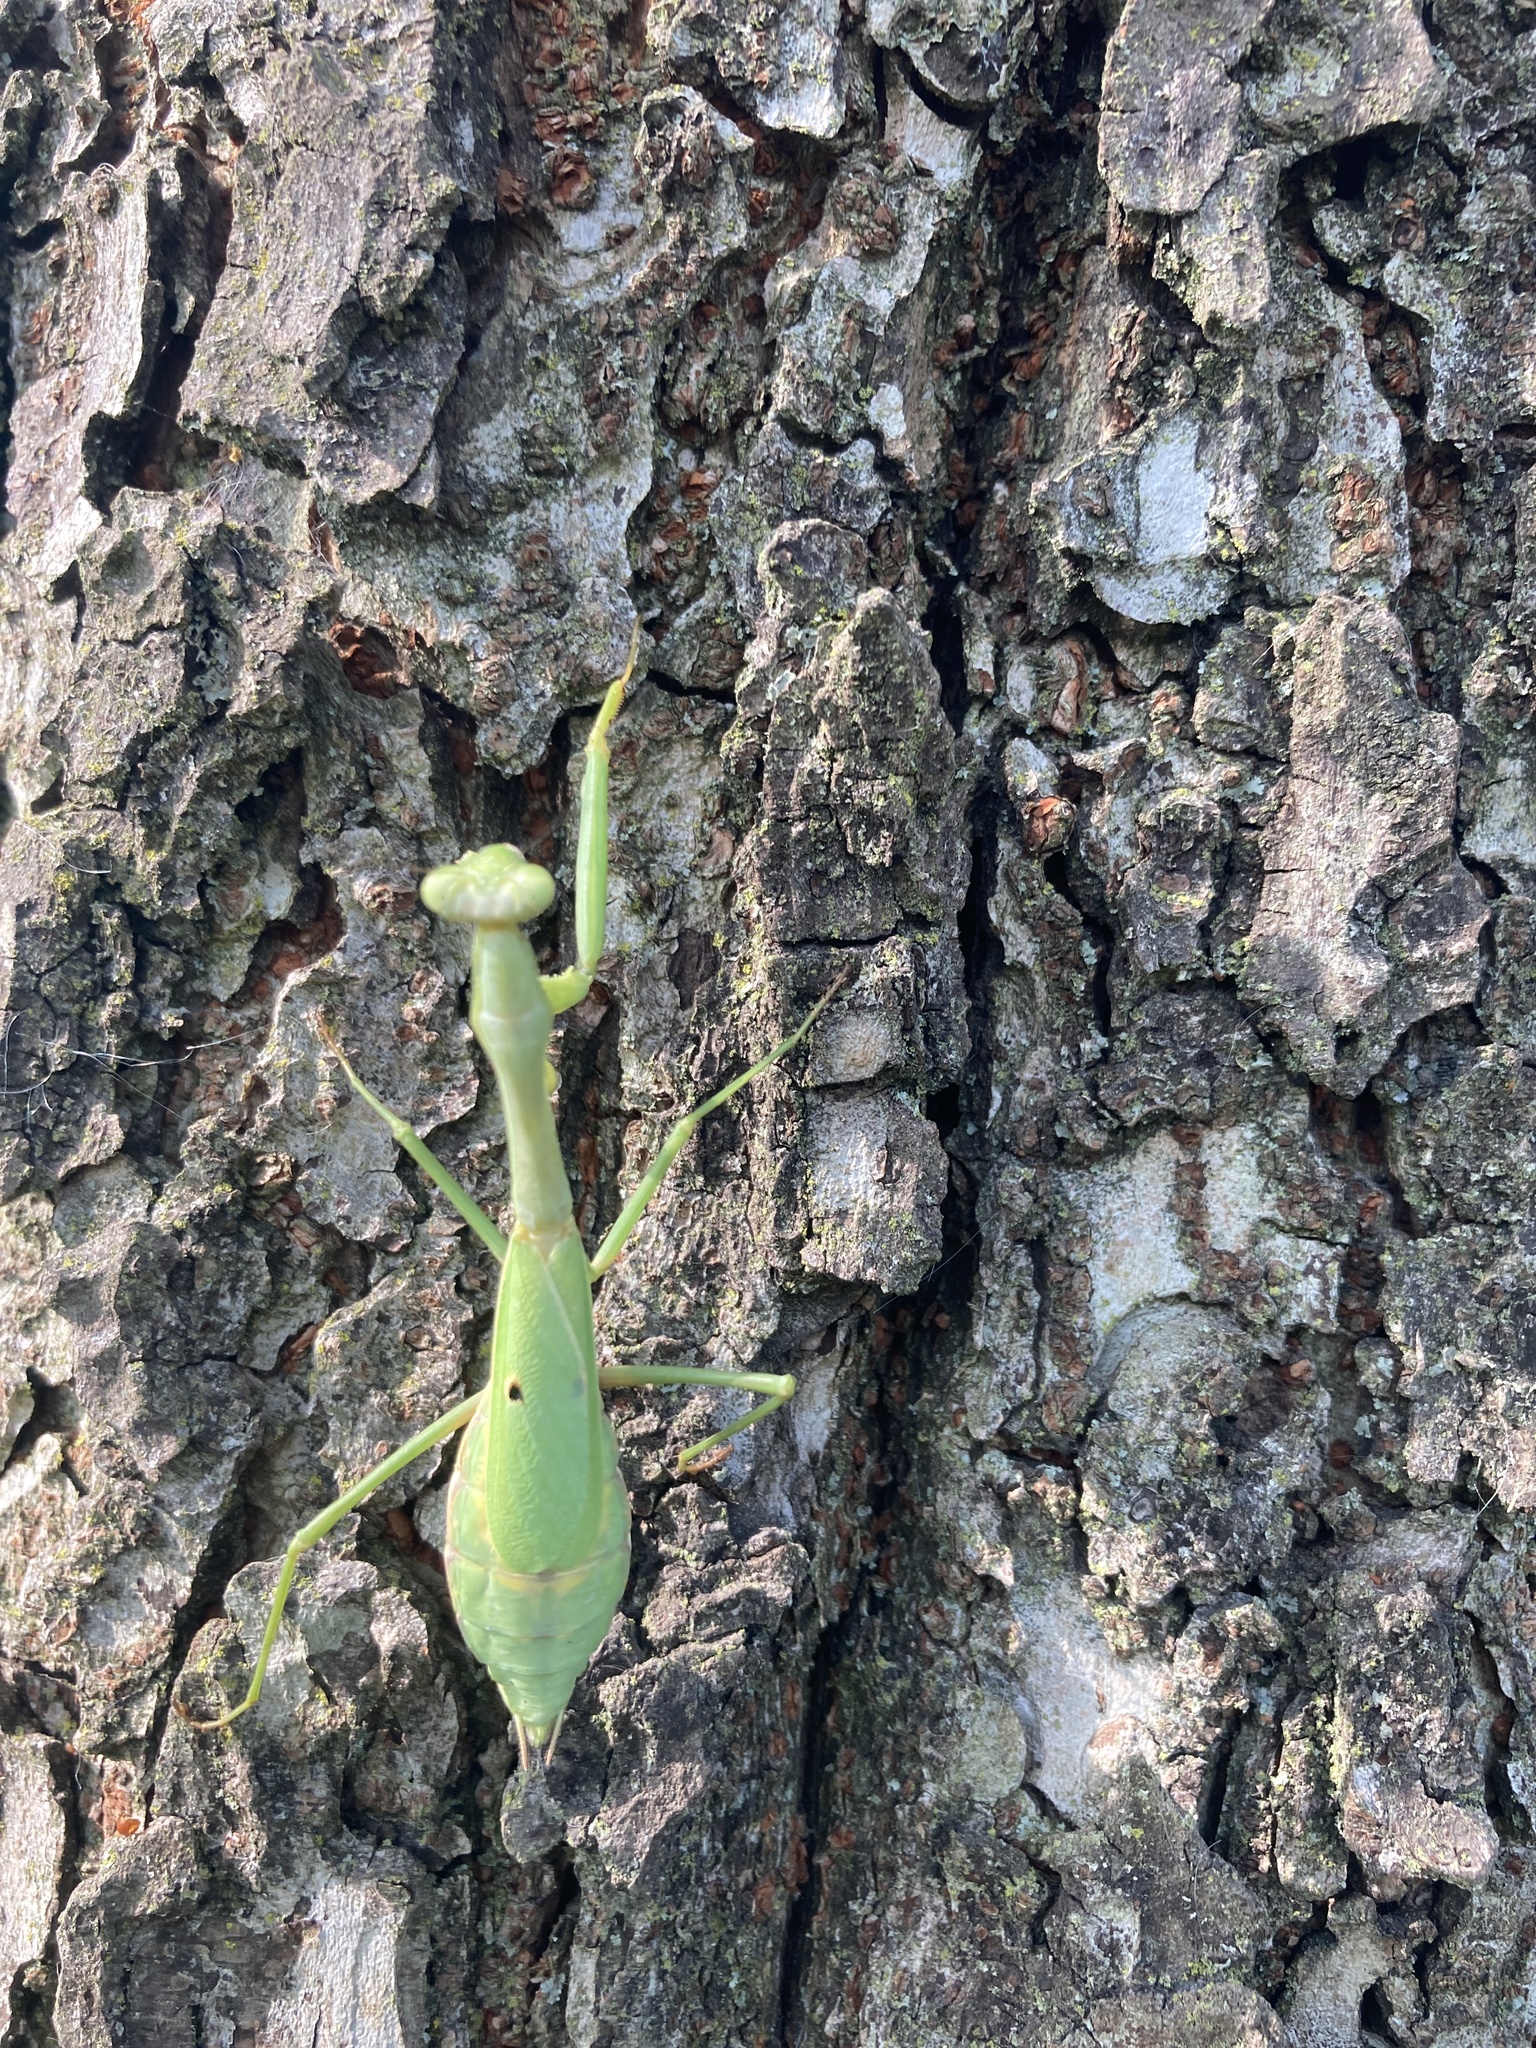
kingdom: Animalia
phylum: Arthropoda
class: Insecta
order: Mantodea
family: Mantidae
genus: Stagmomantis
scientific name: Stagmomantis carolina
